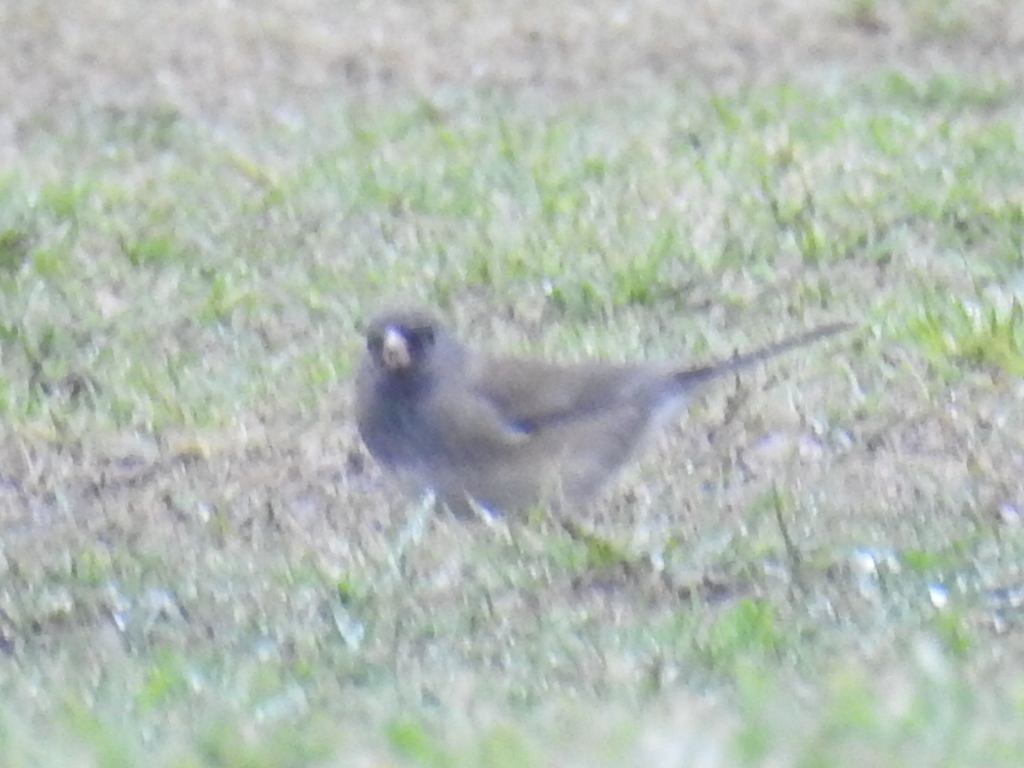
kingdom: Animalia
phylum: Chordata
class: Aves
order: Passeriformes
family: Passerellidae
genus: Junco
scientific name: Junco hyemalis
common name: Dark-eyed junco
